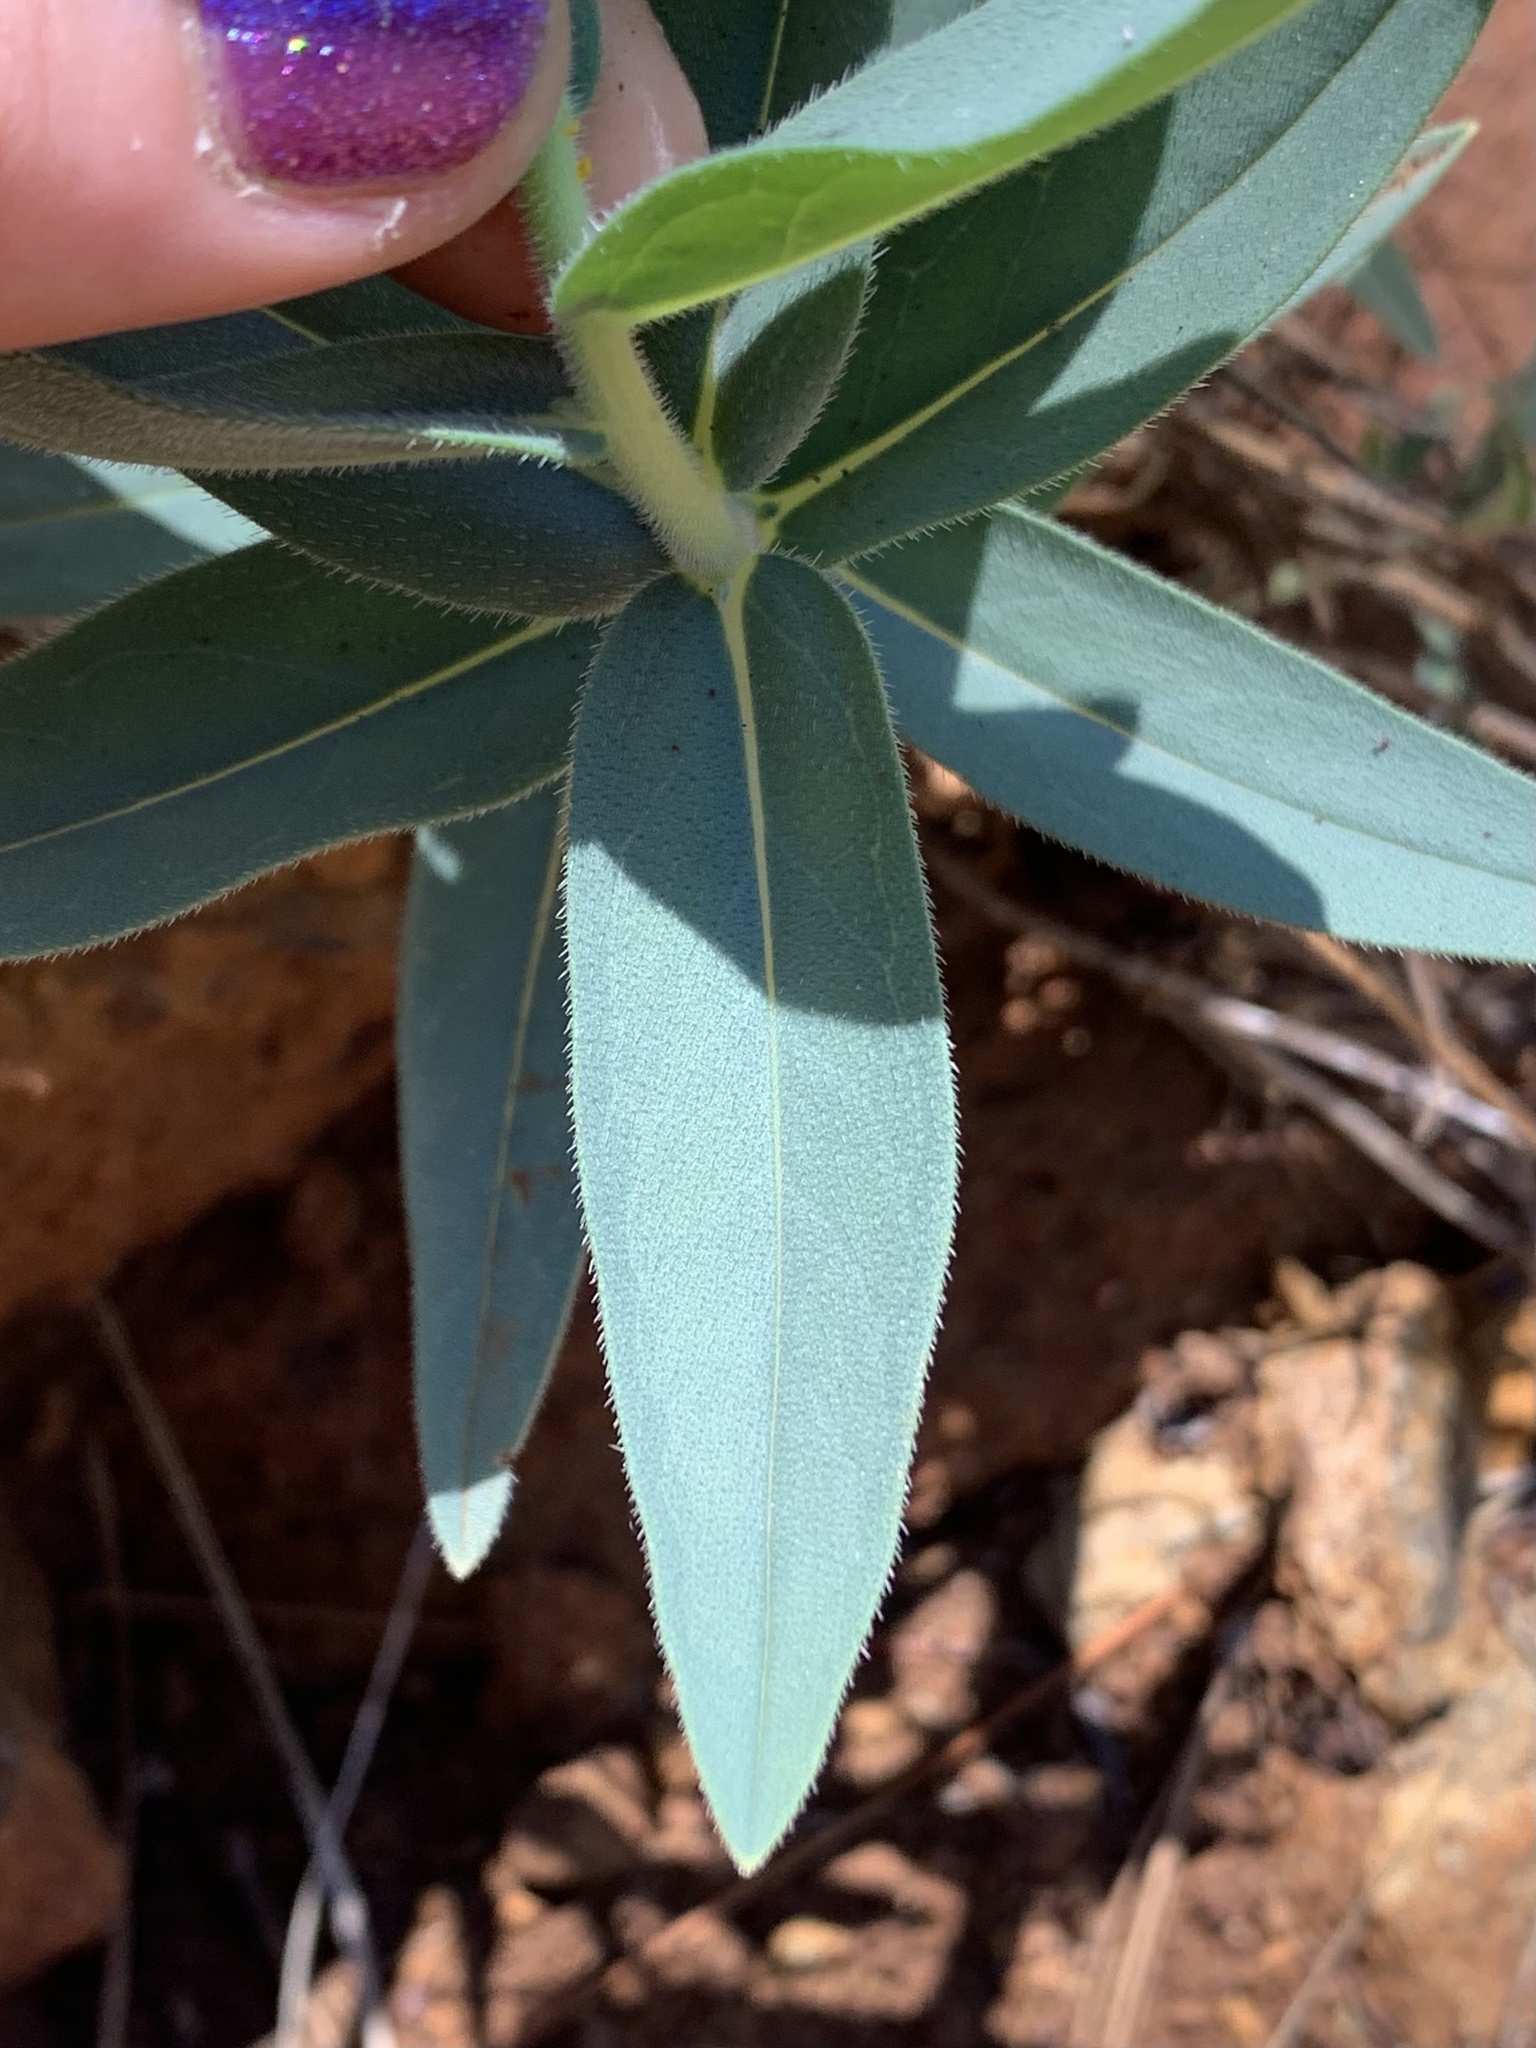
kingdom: Plantae
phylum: Tracheophyta
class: Magnoliopsida
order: Boraginales
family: Boraginaceae
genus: Lithospermum
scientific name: Lithospermum californicum
